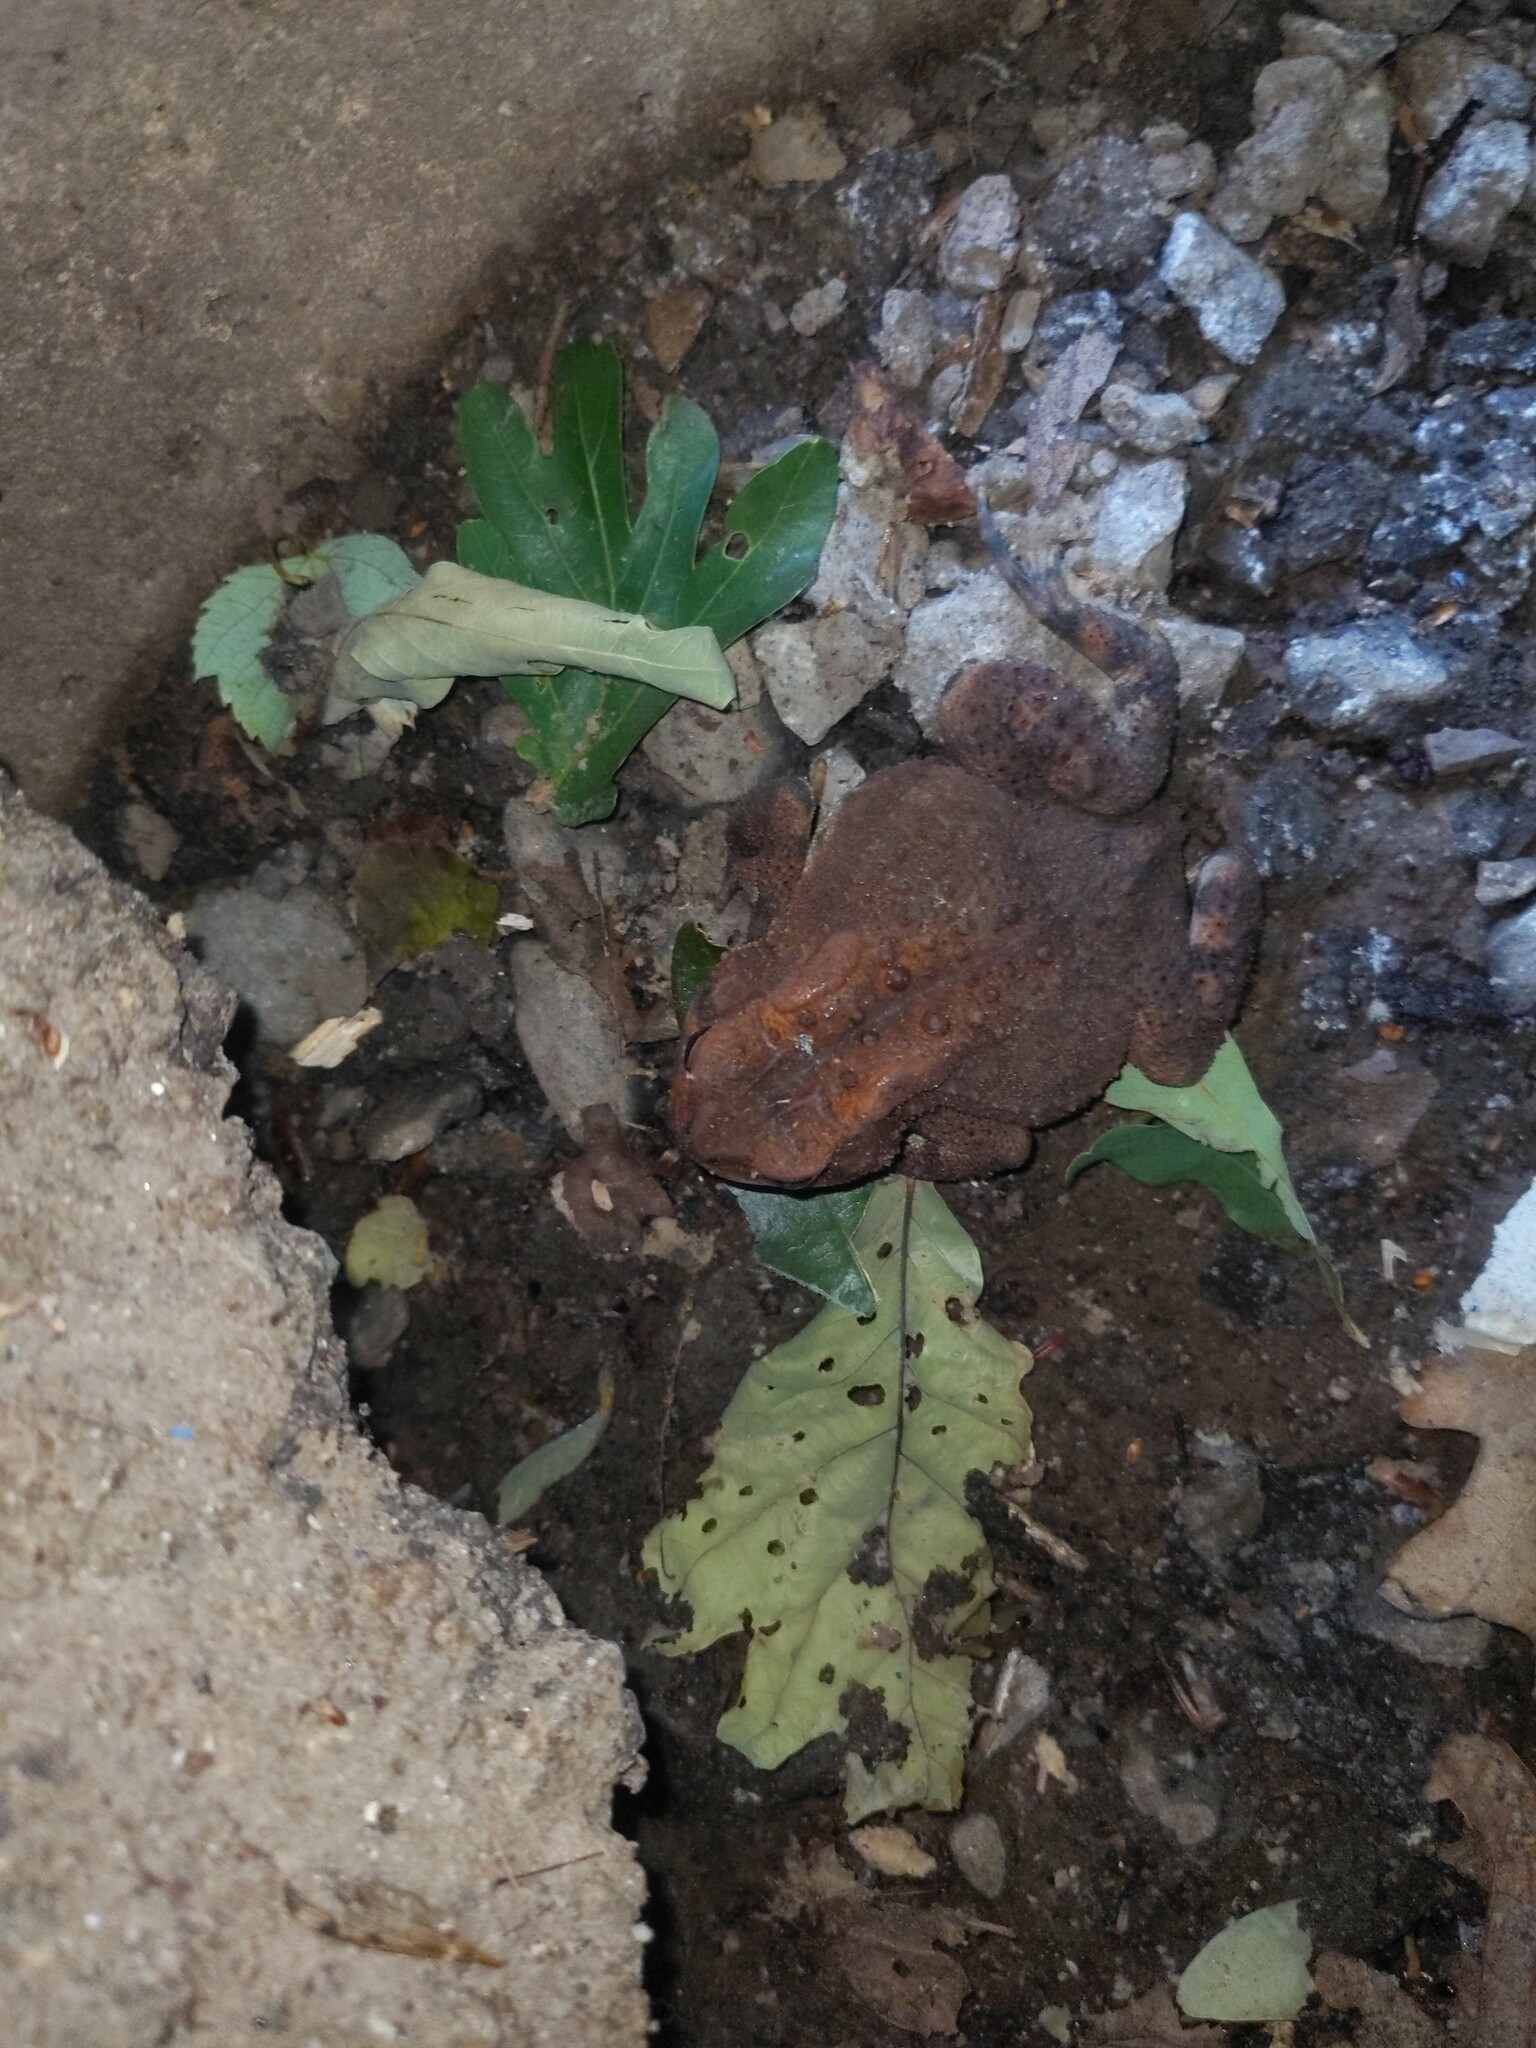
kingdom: Animalia
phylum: Chordata
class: Amphibia
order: Anura
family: Bufonidae
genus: Anaxyrus
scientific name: Anaxyrus americanus
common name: American toad
